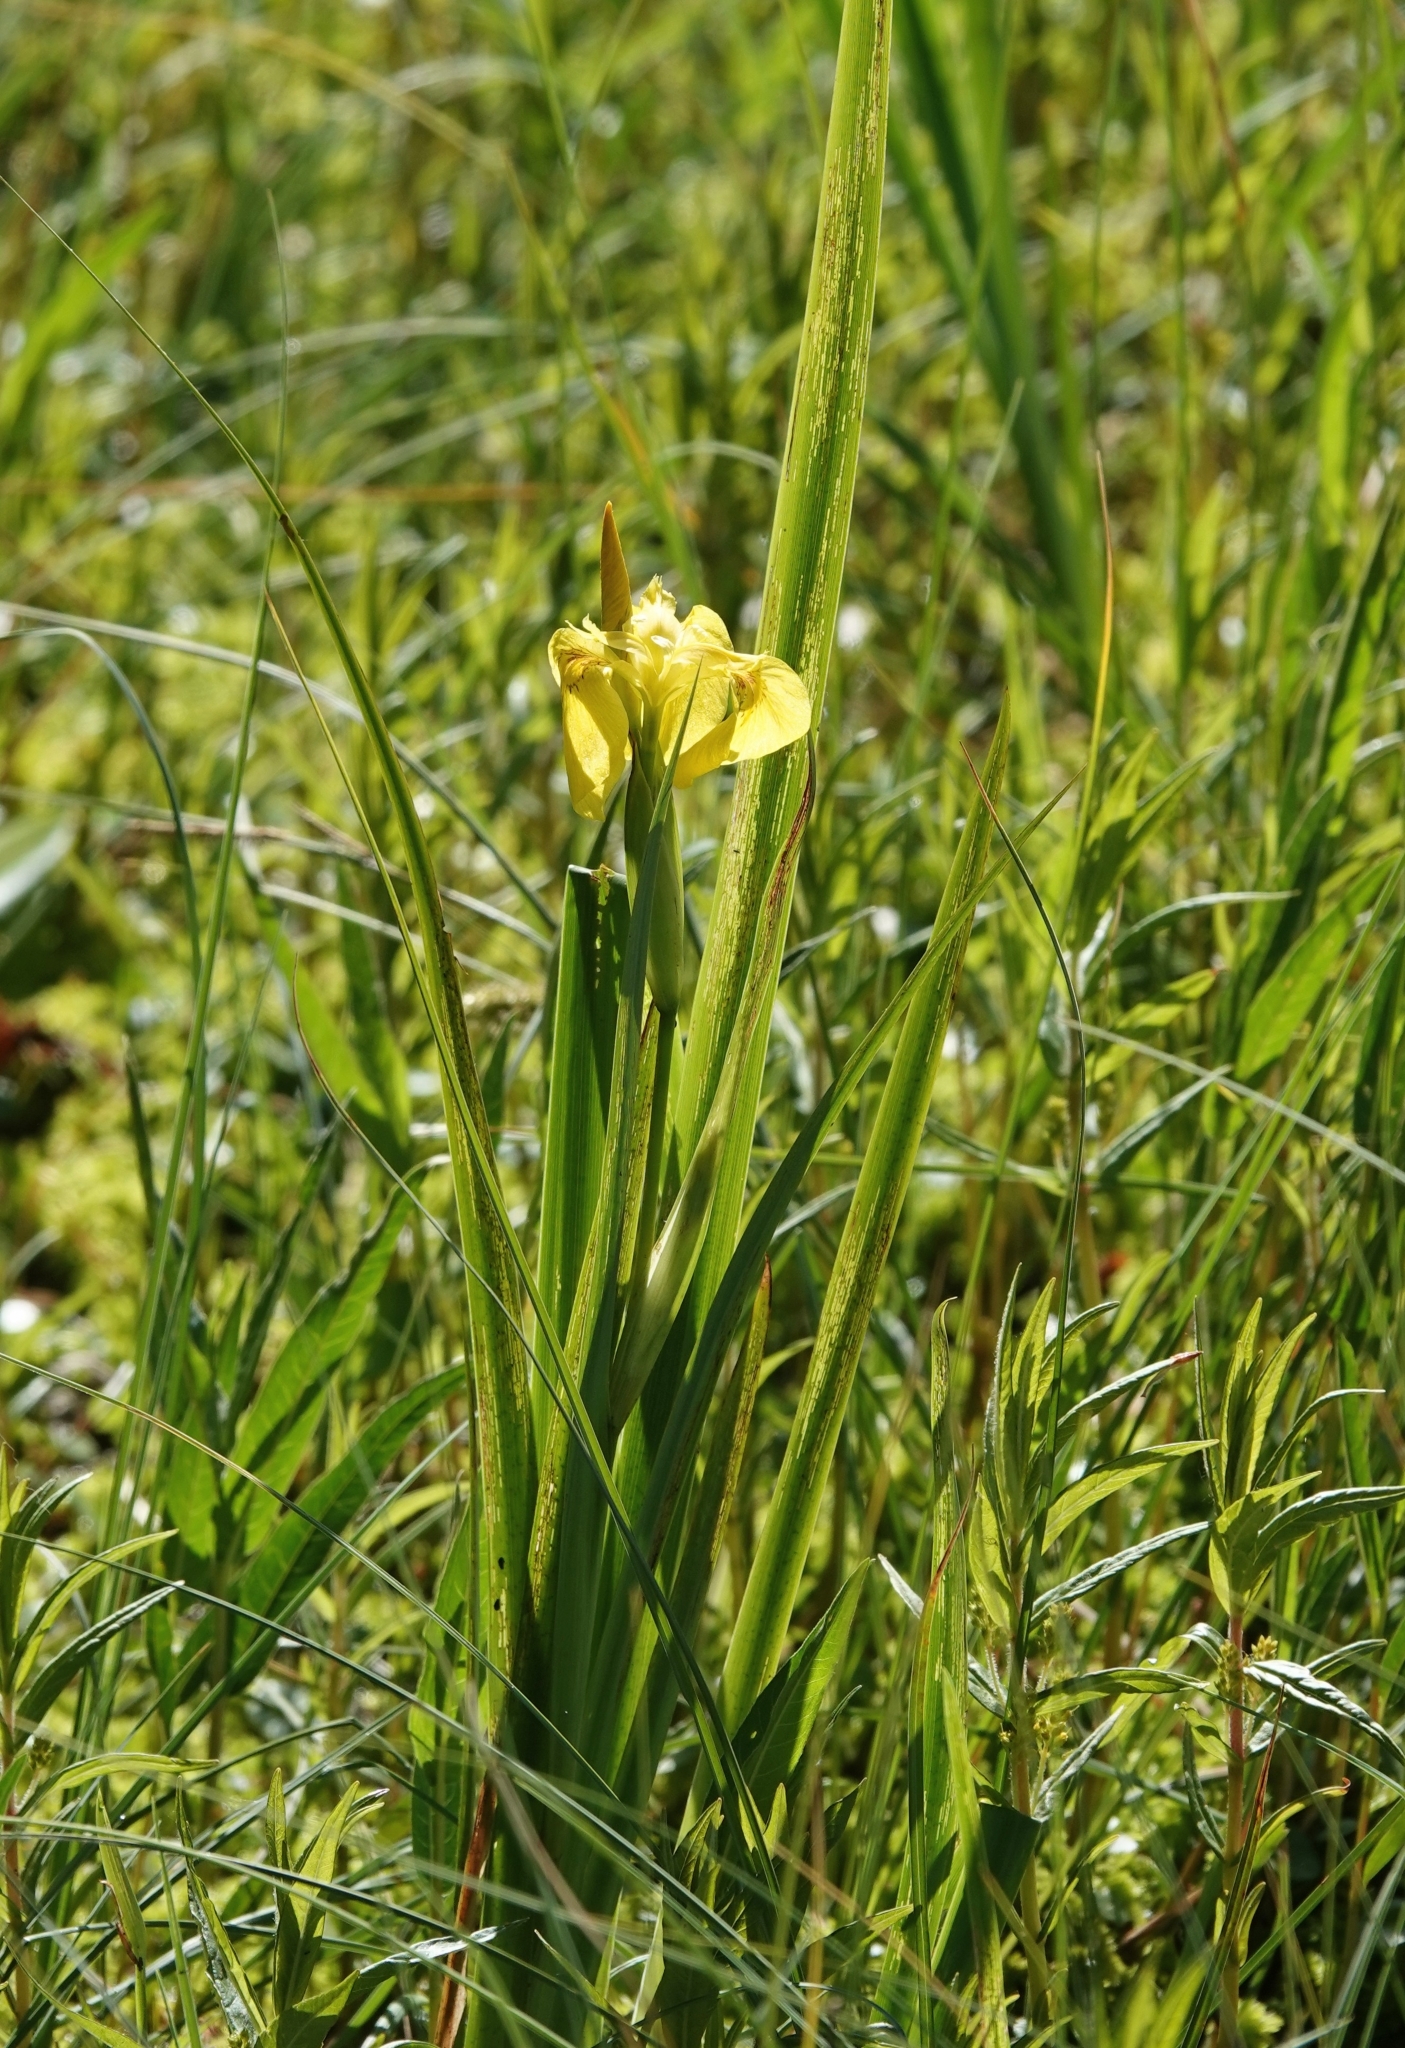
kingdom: Plantae
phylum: Tracheophyta
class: Liliopsida
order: Asparagales
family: Iridaceae
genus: Iris
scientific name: Iris pseudacorus
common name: Yellow flag
